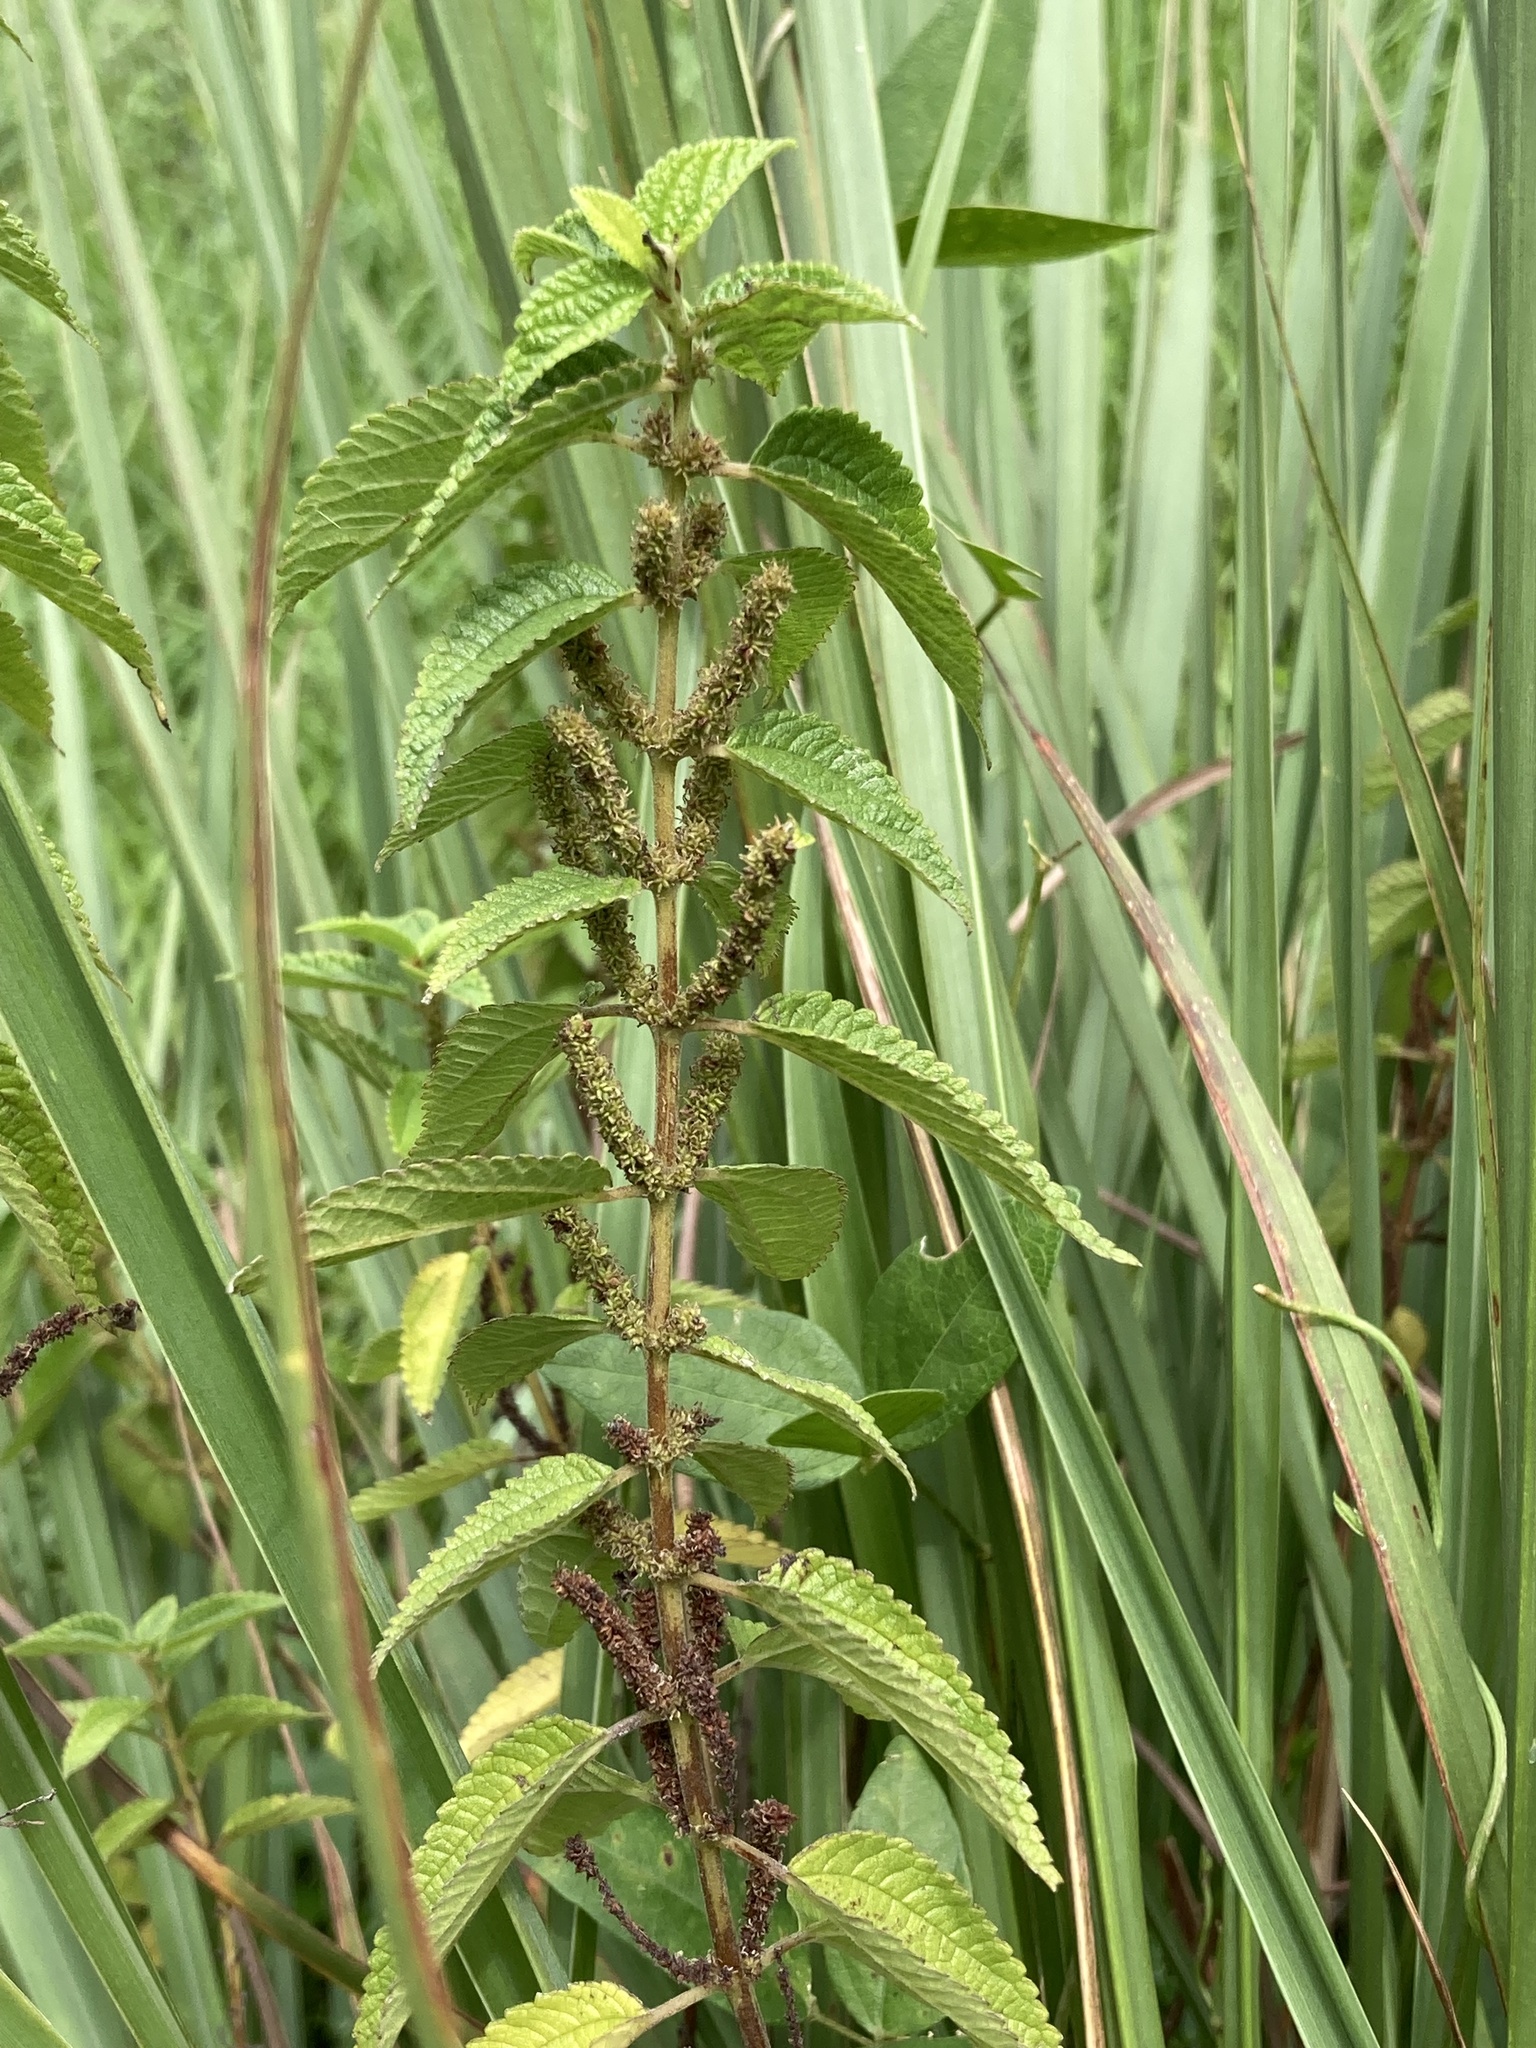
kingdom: Plantae
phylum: Tracheophyta
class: Magnoliopsida
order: Rosales
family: Urticaceae
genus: Boehmeria
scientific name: Boehmeria cylindrica
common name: Bog-hemp
